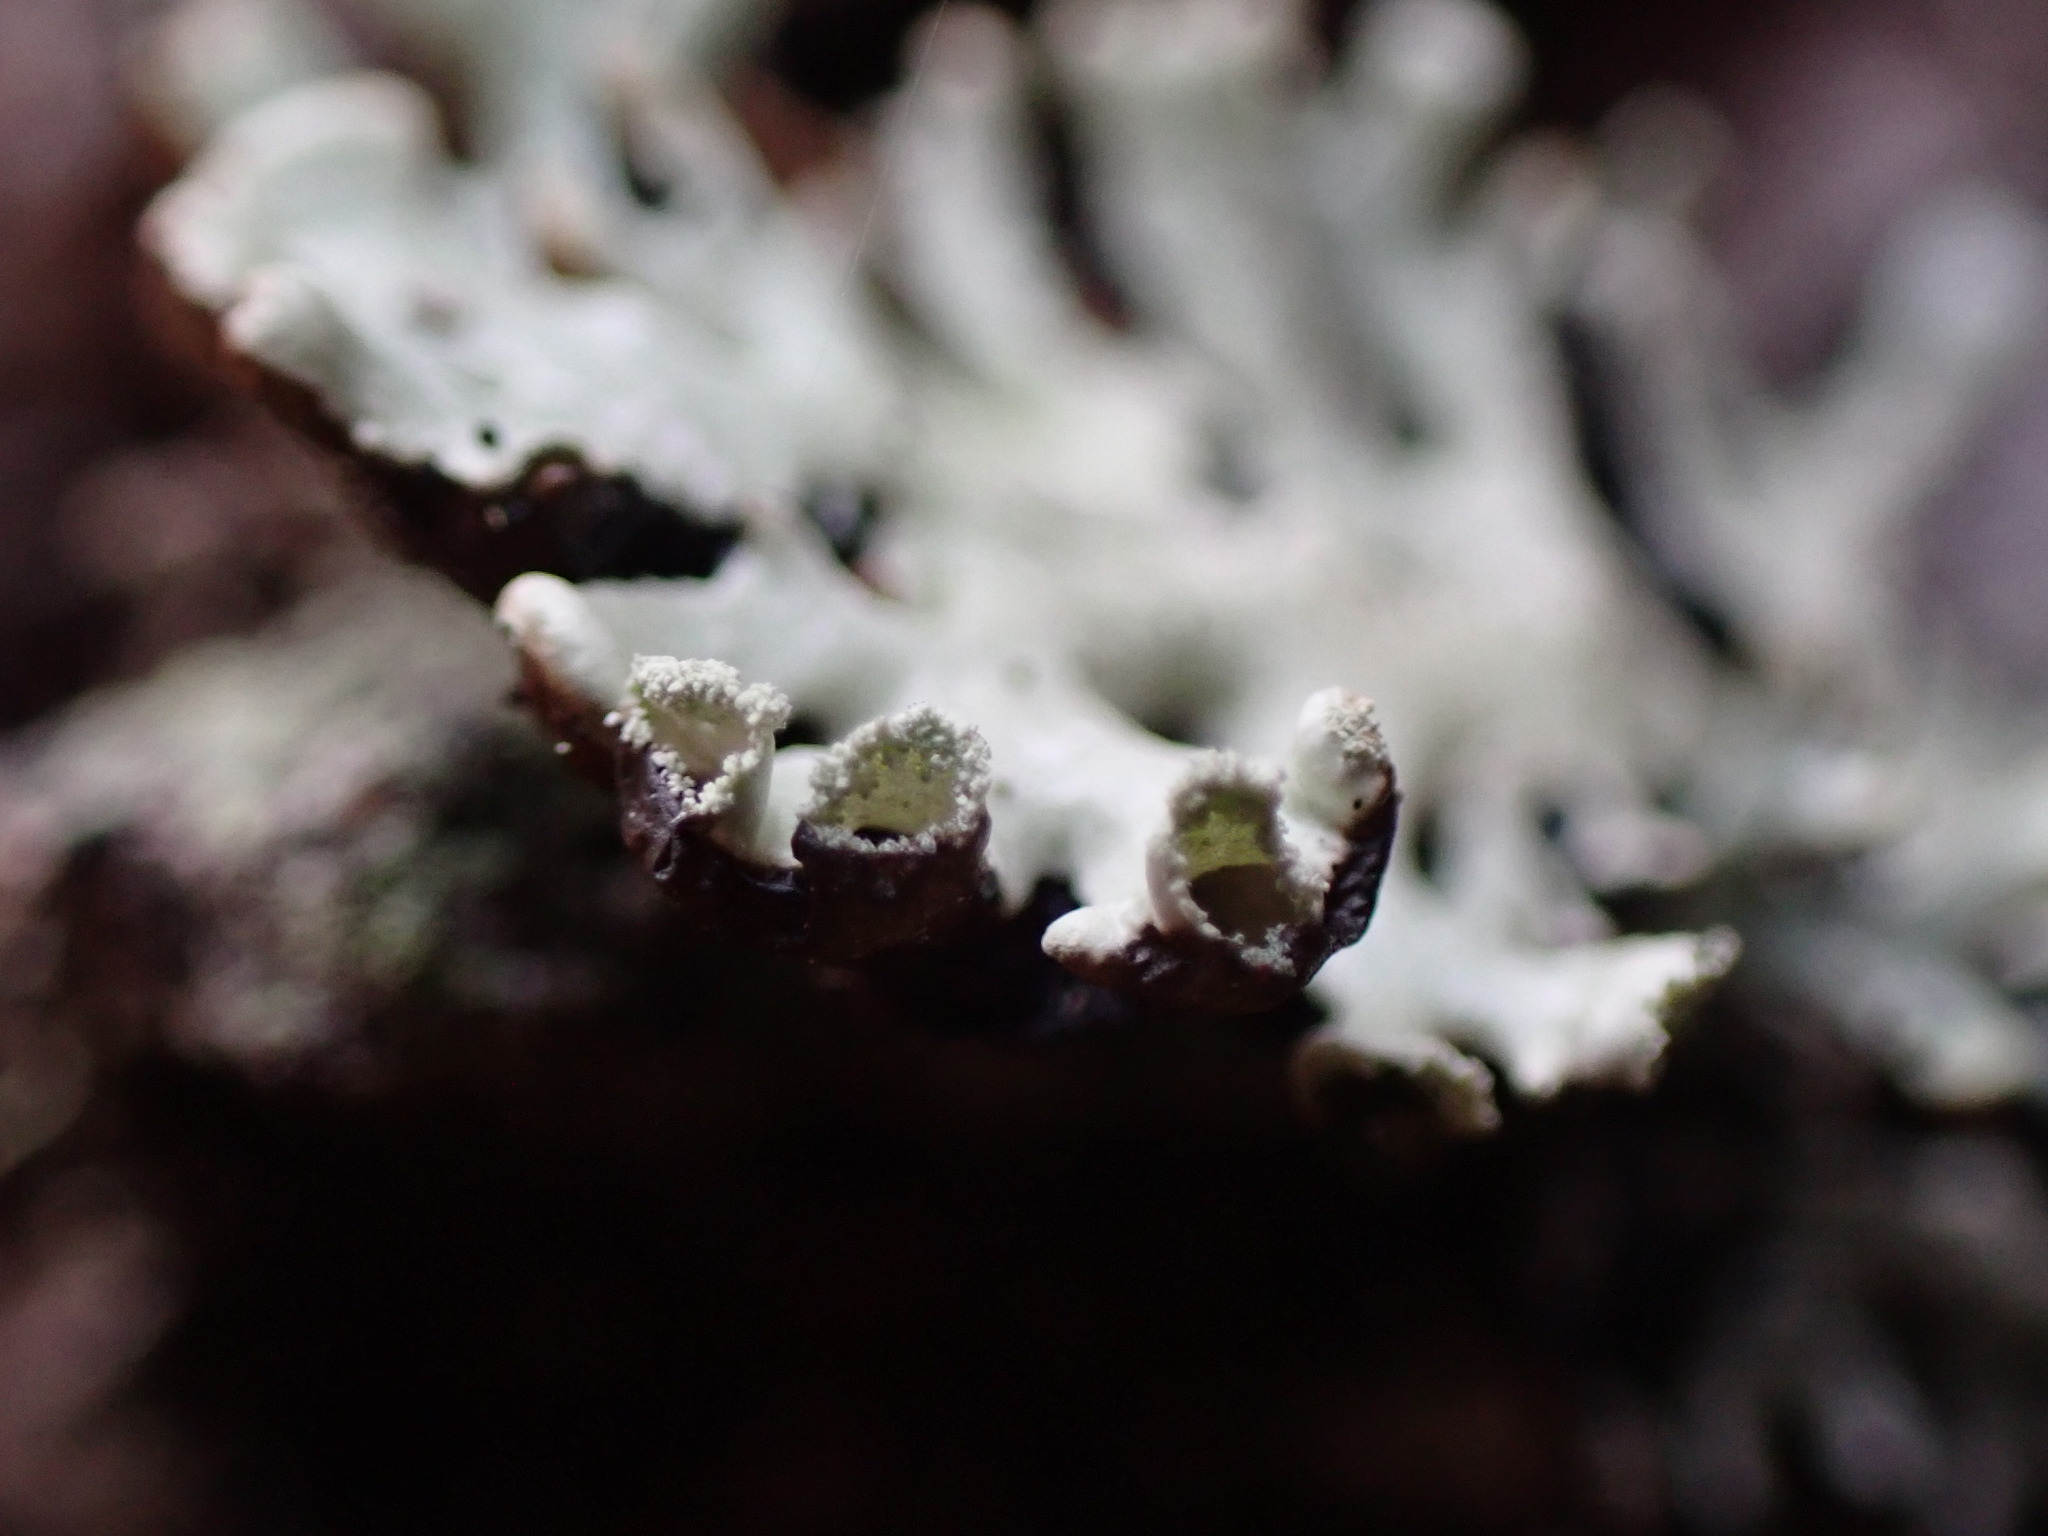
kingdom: Fungi
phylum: Ascomycota
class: Lecanoromycetes
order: Lecanorales
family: Parmeliaceae
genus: Hypogymnia
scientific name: Hypogymnia physodes
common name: Dark crottle
